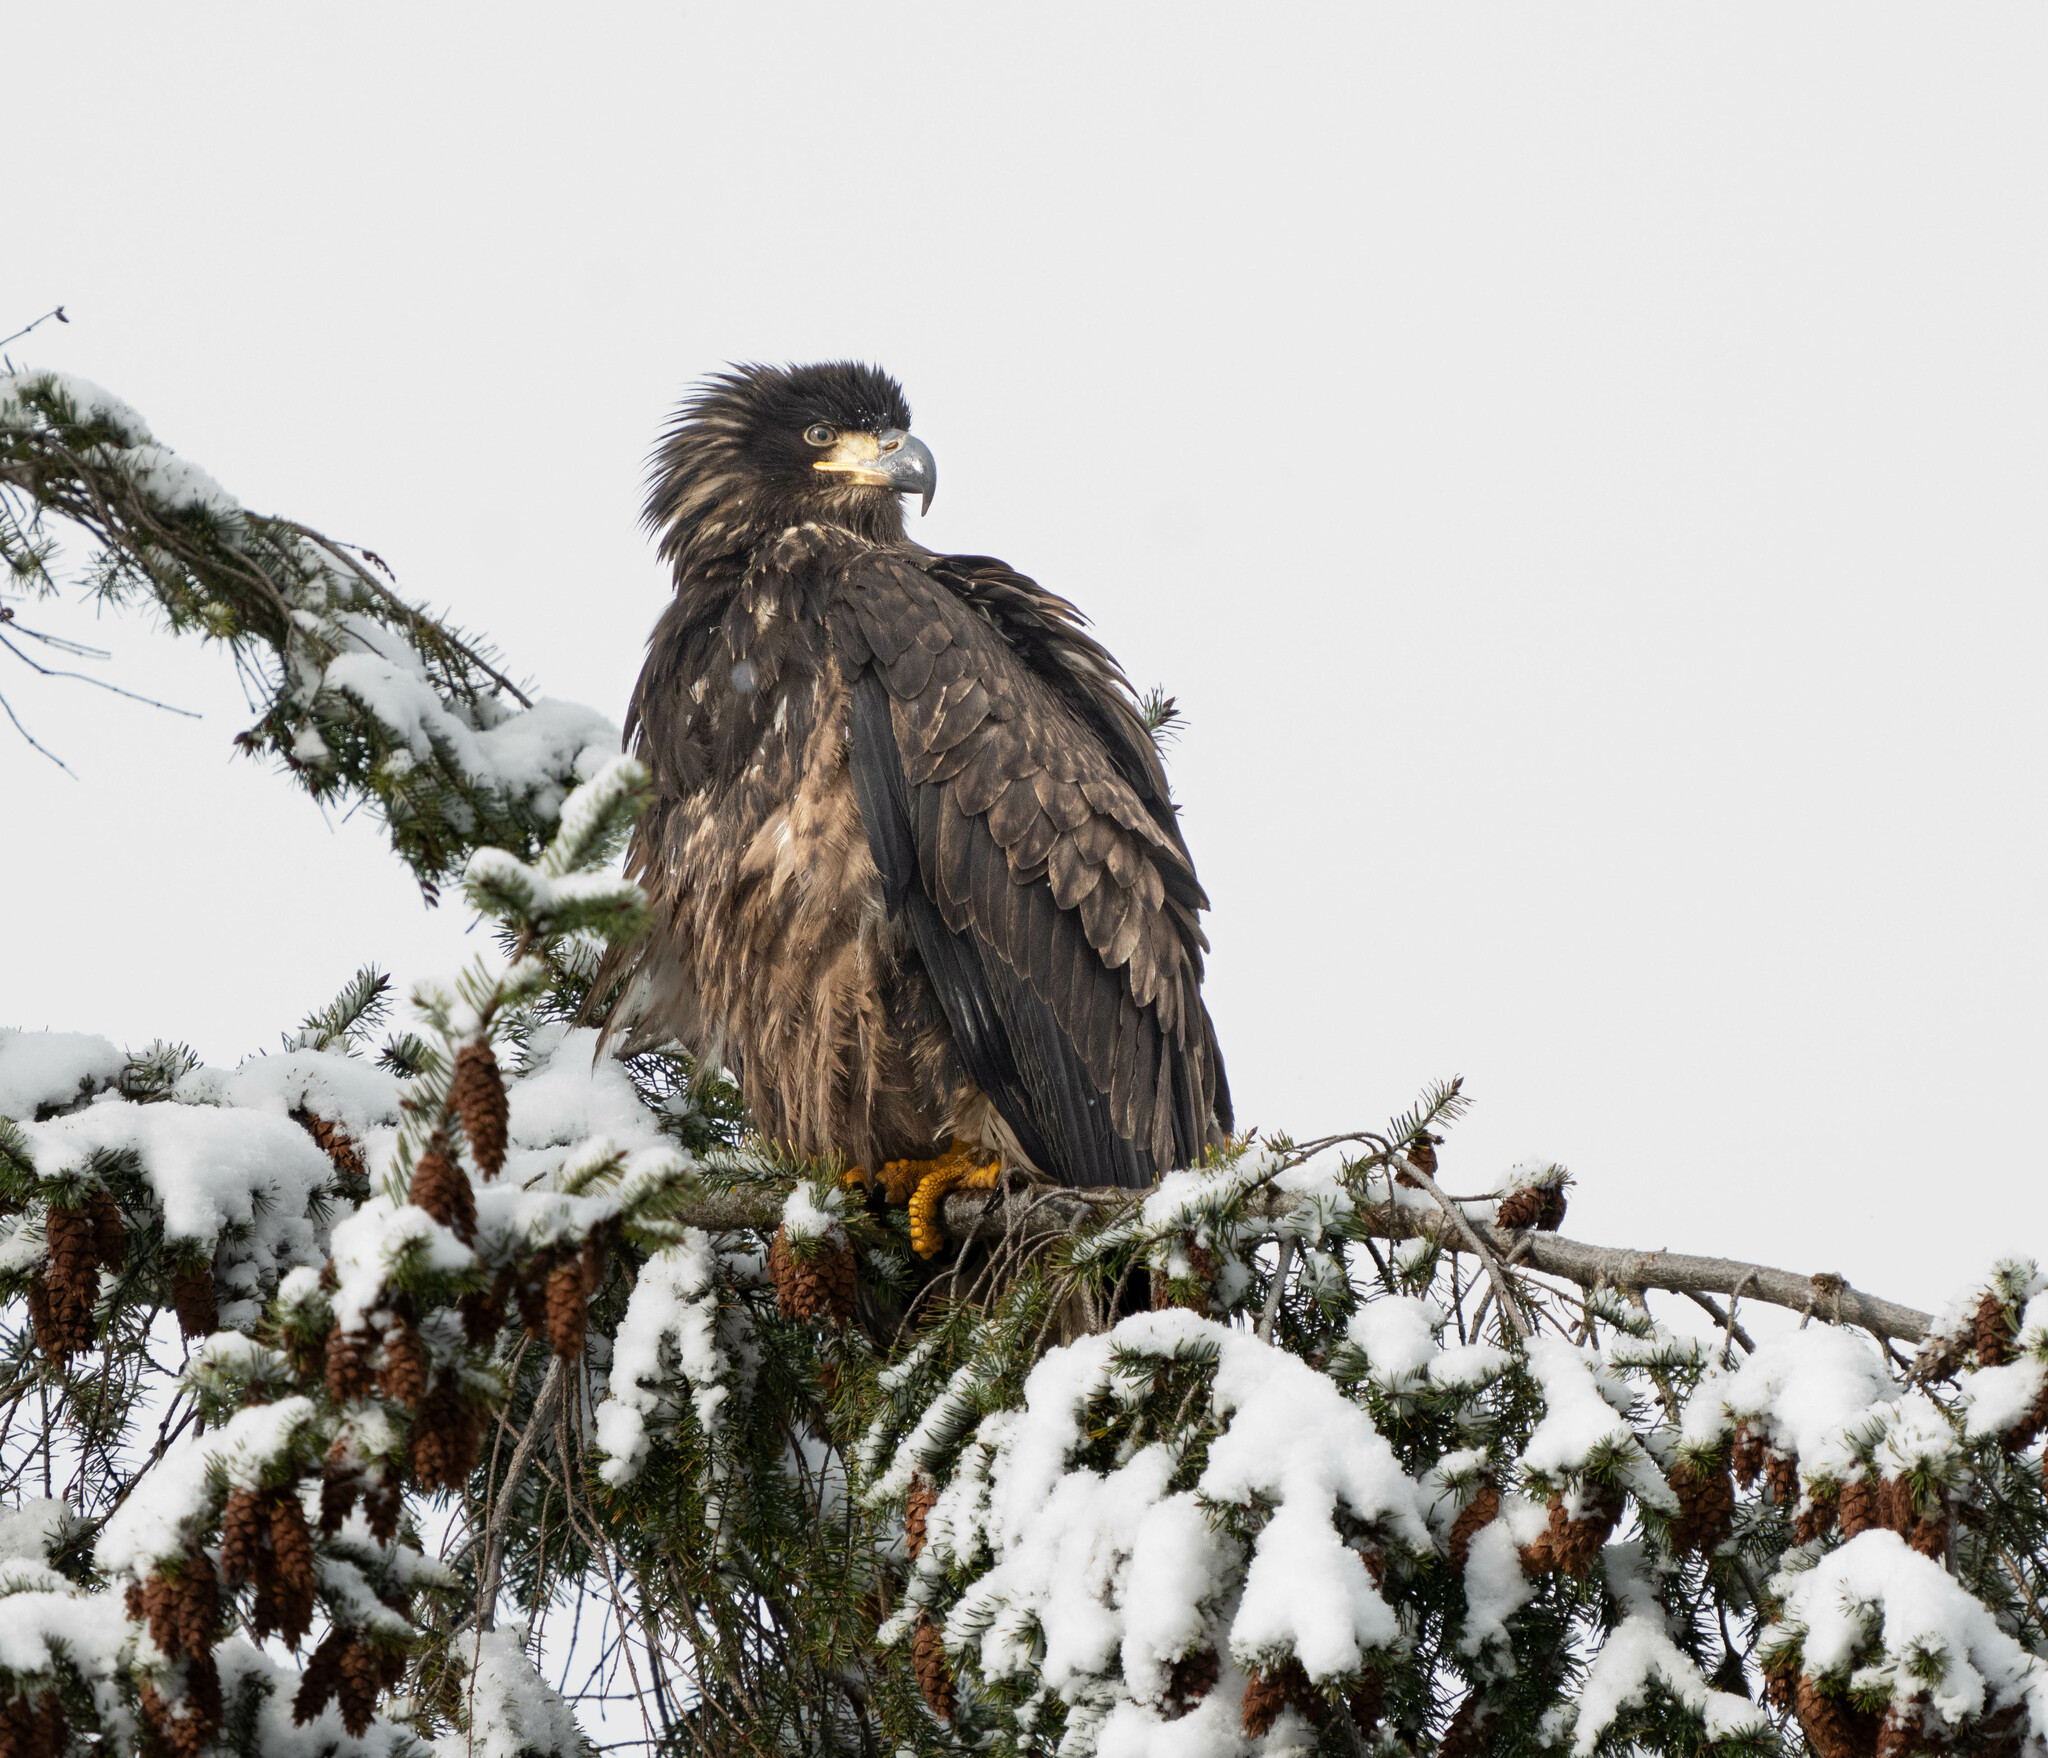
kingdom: Animalia
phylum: Chordata
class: Aves
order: Accipitriformes
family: Accipitridae
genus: Haliaeetus
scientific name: Haliaeetus leucocephalus
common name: Bald eagle
